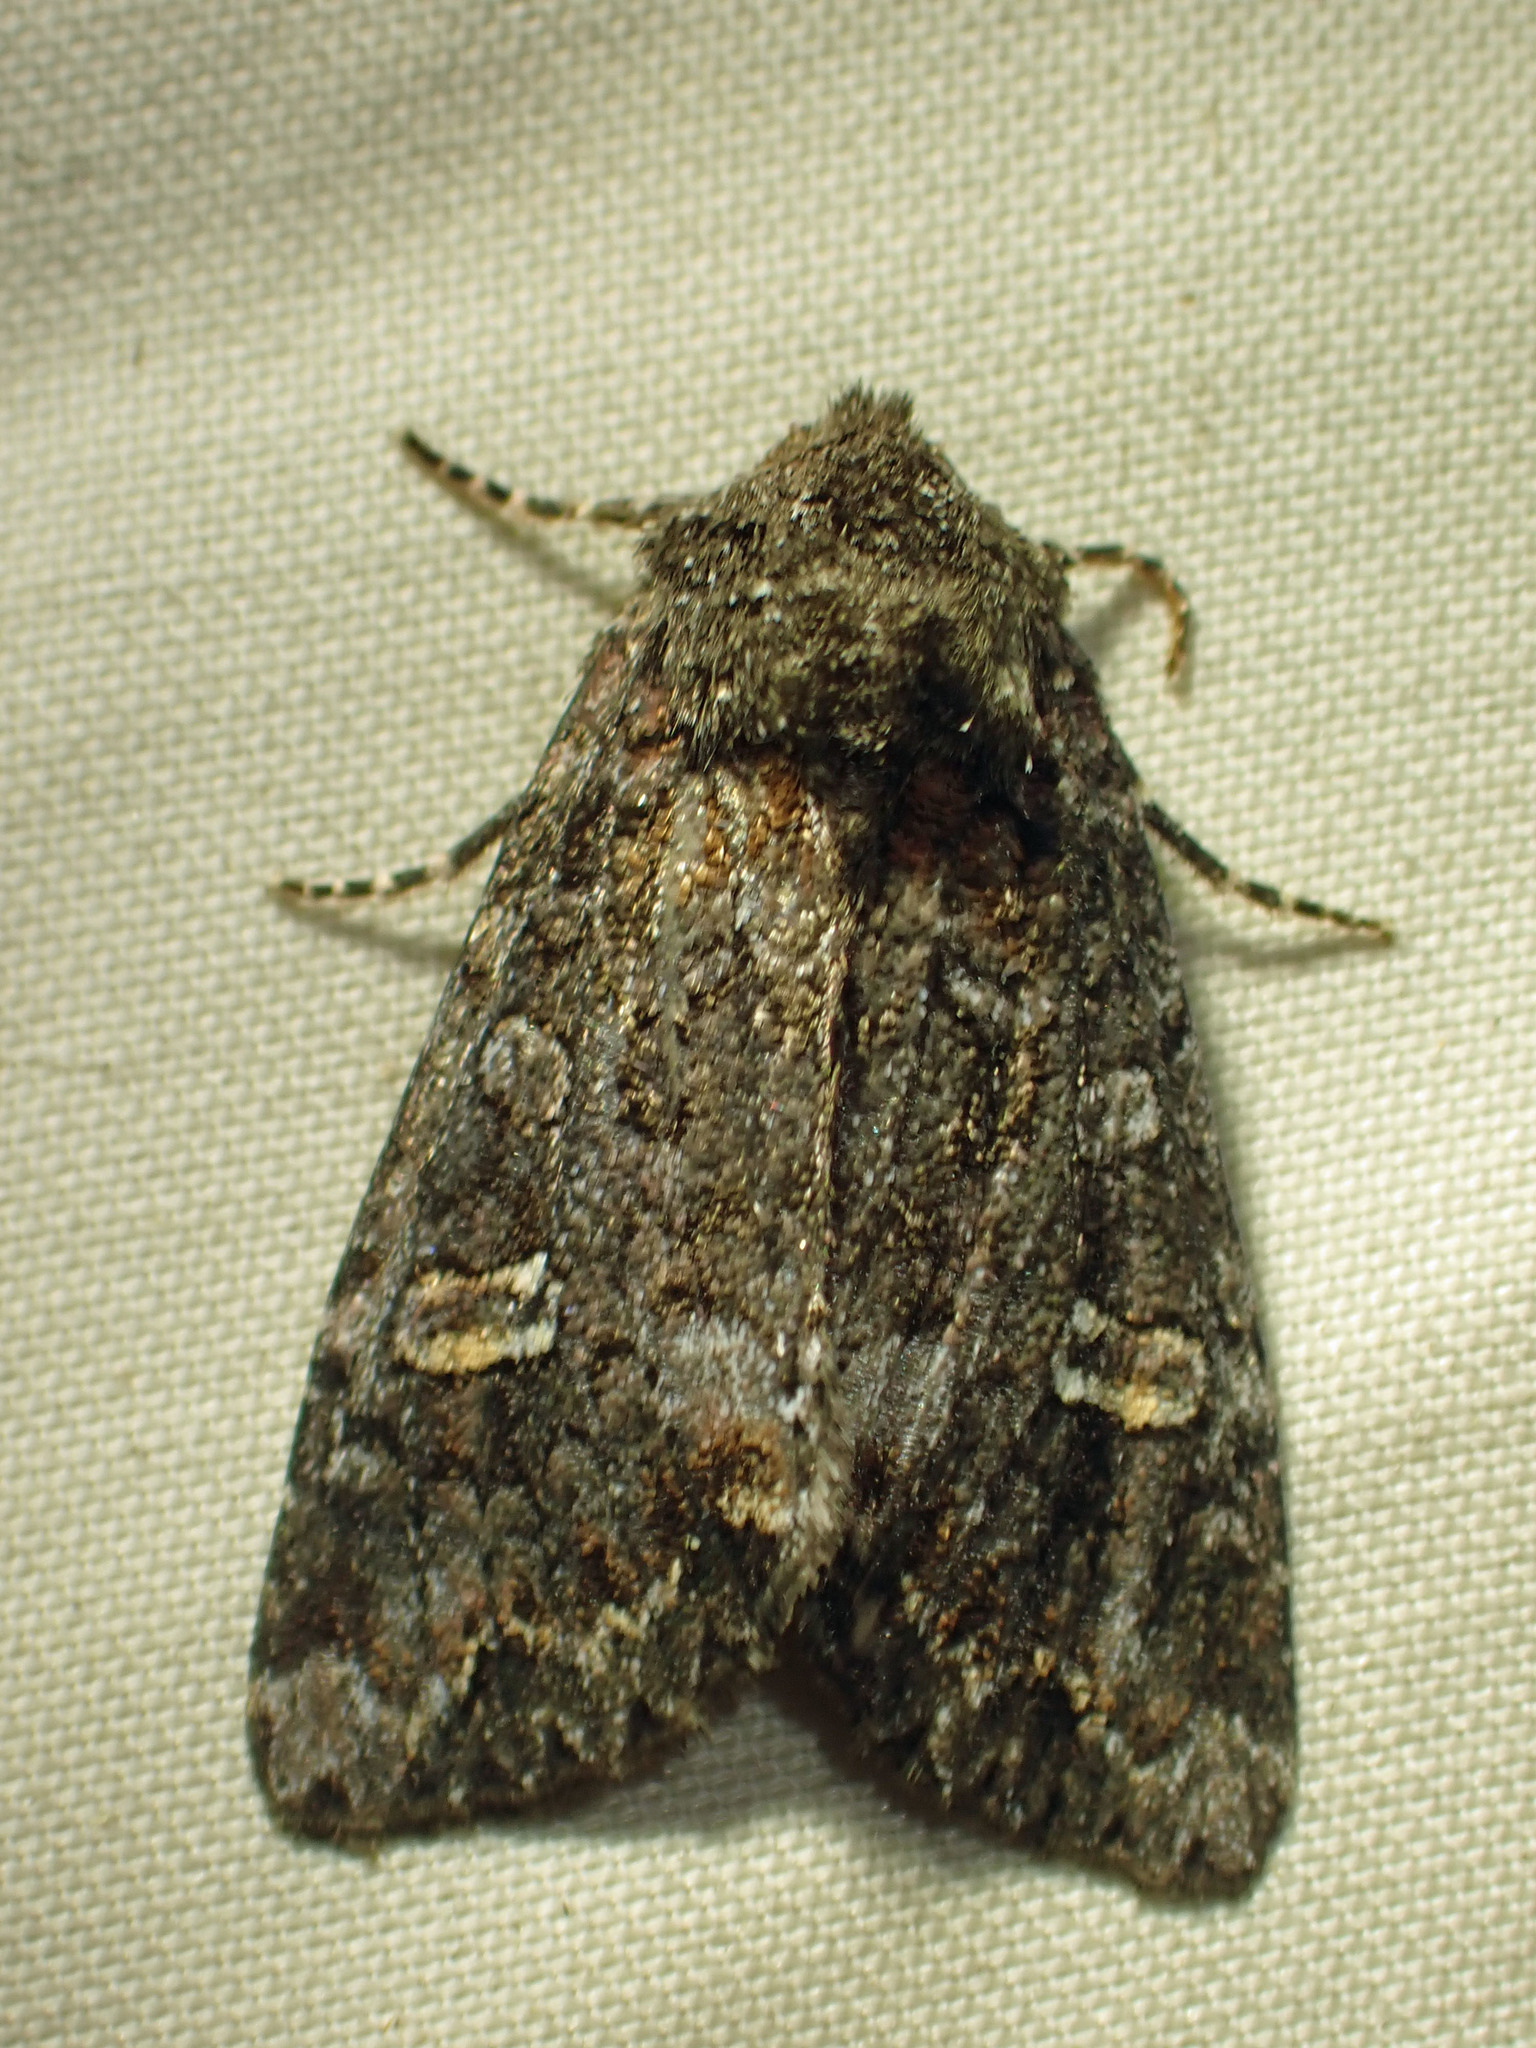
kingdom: Animalia
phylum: Arthropoda
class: Insecta
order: Lepidoptera
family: Noctuidae
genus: Spiramater
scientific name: Spiramater lutra
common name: Otter spiramater moth
